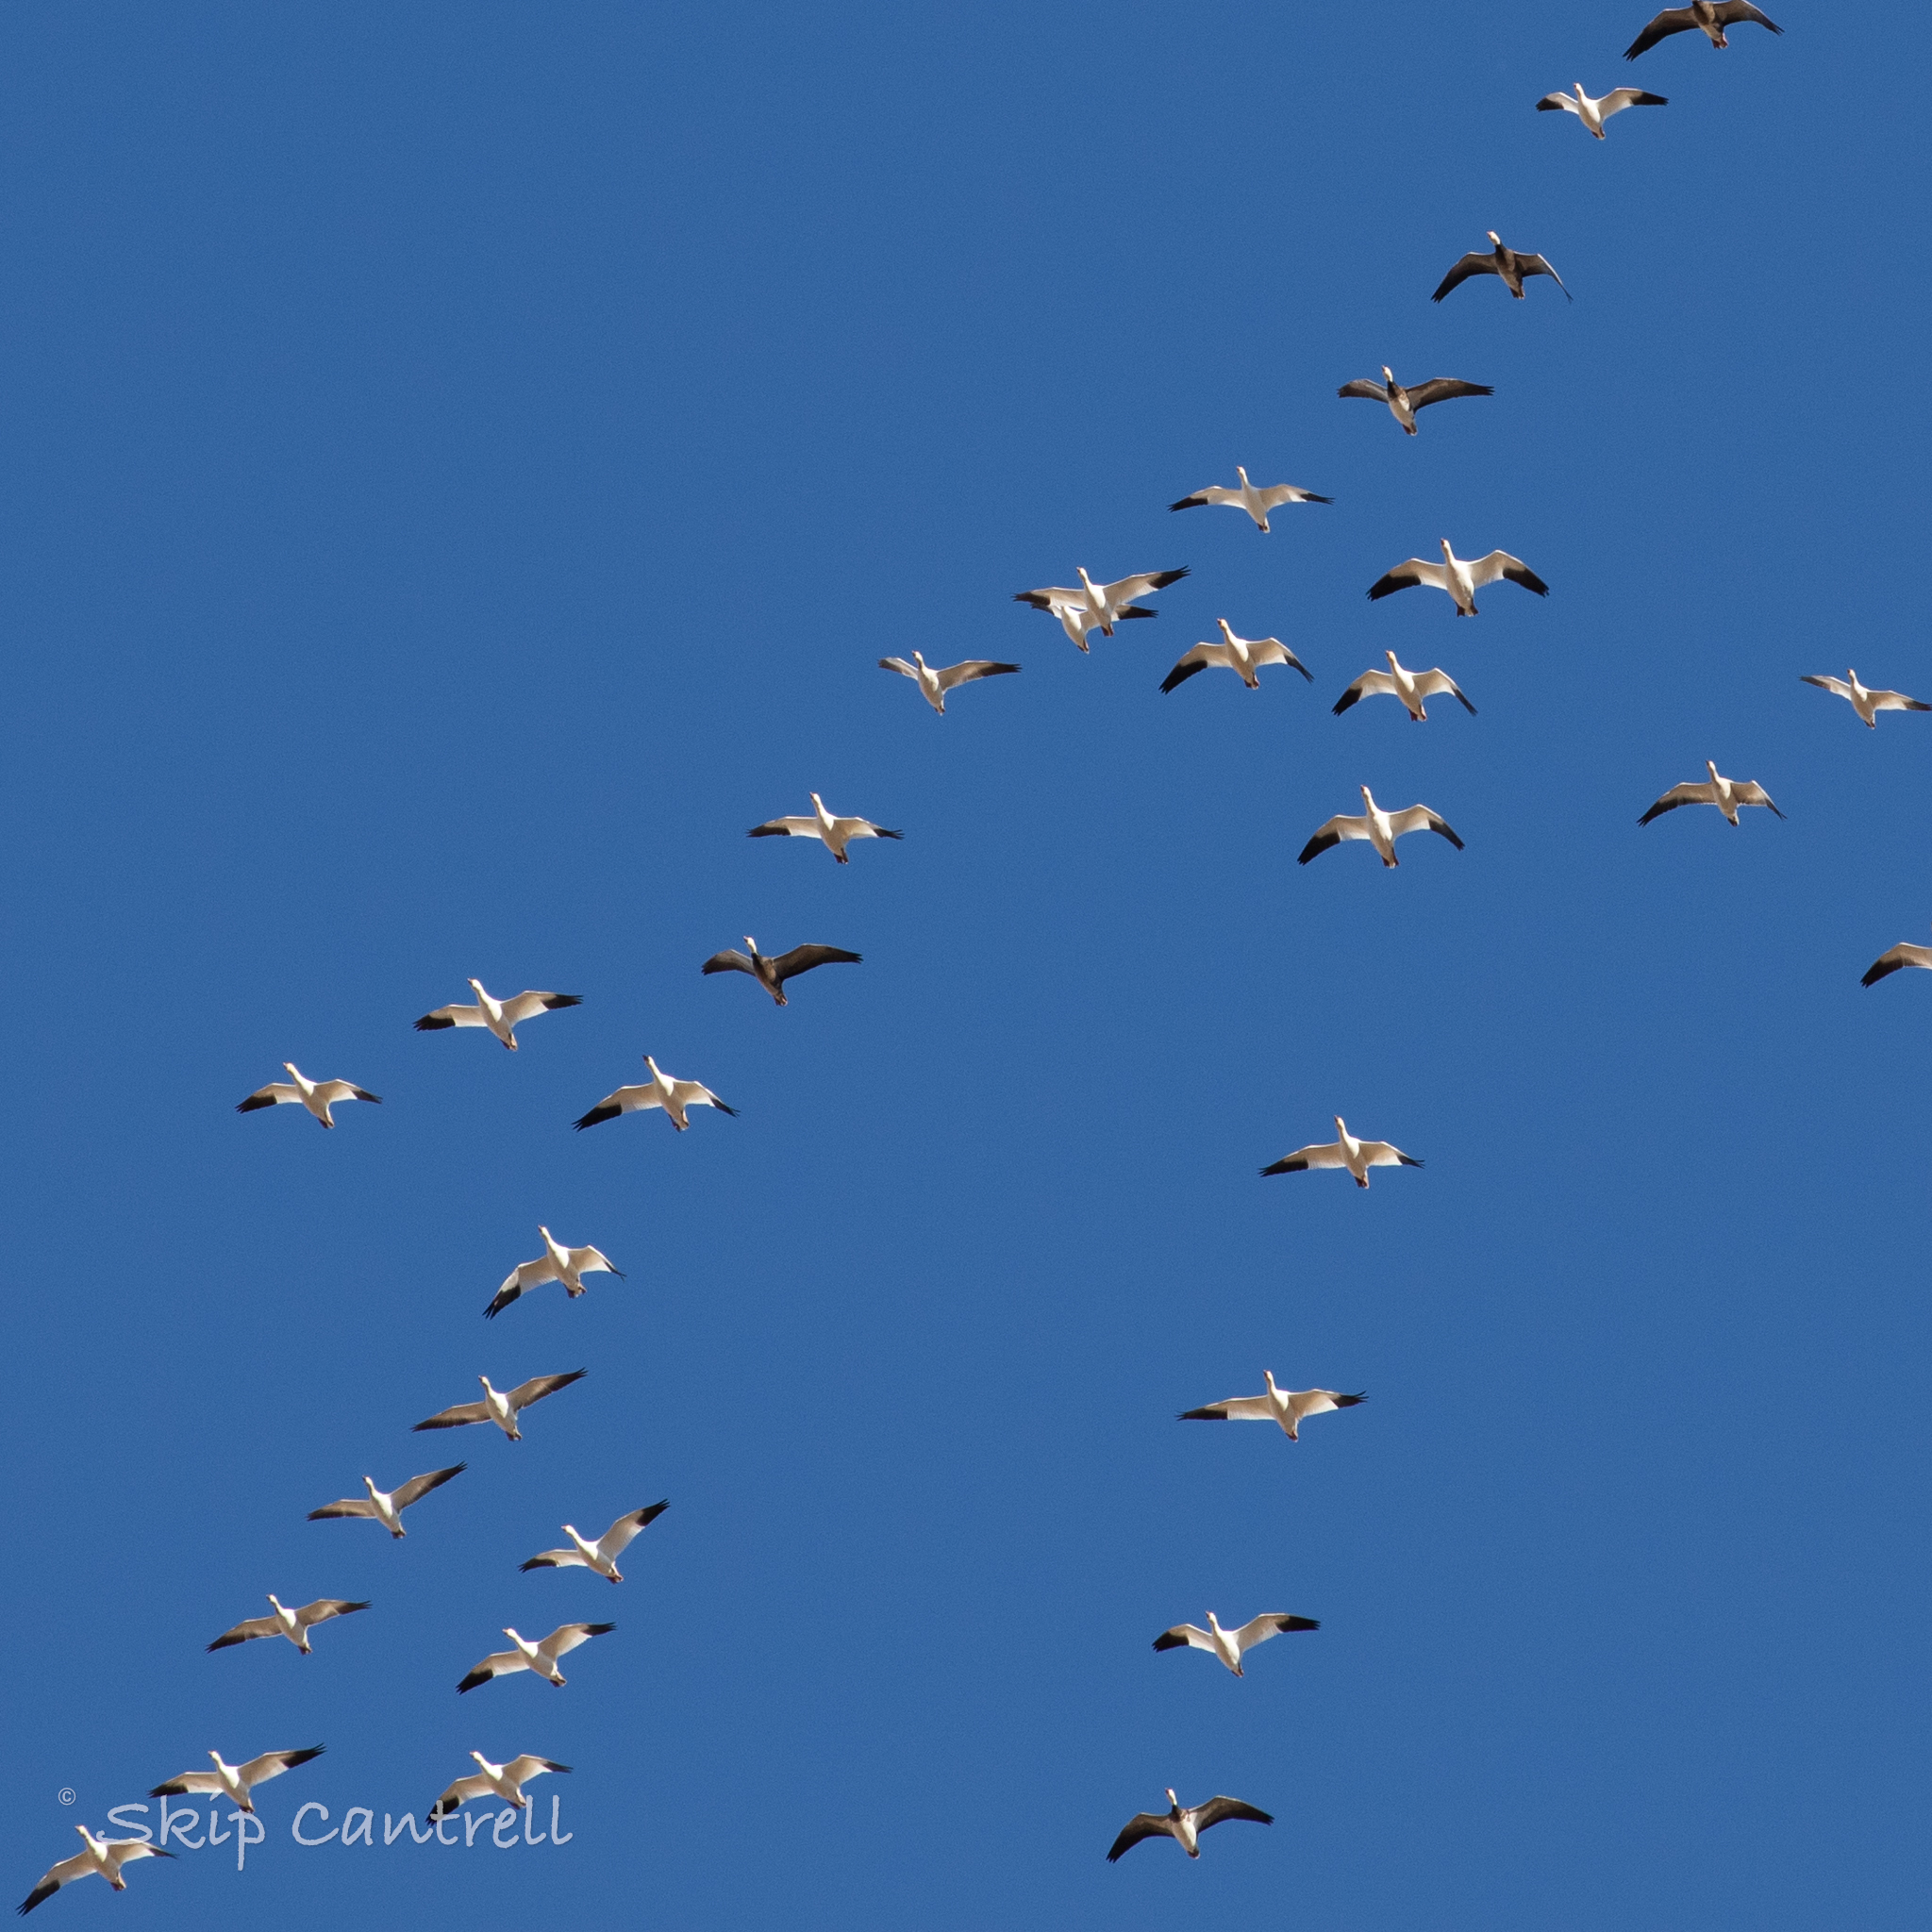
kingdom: Animalia
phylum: Chordata
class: Aves
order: Anseriformes
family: Anatidae
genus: Anser
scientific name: Anser caerulescens
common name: Snow goose
